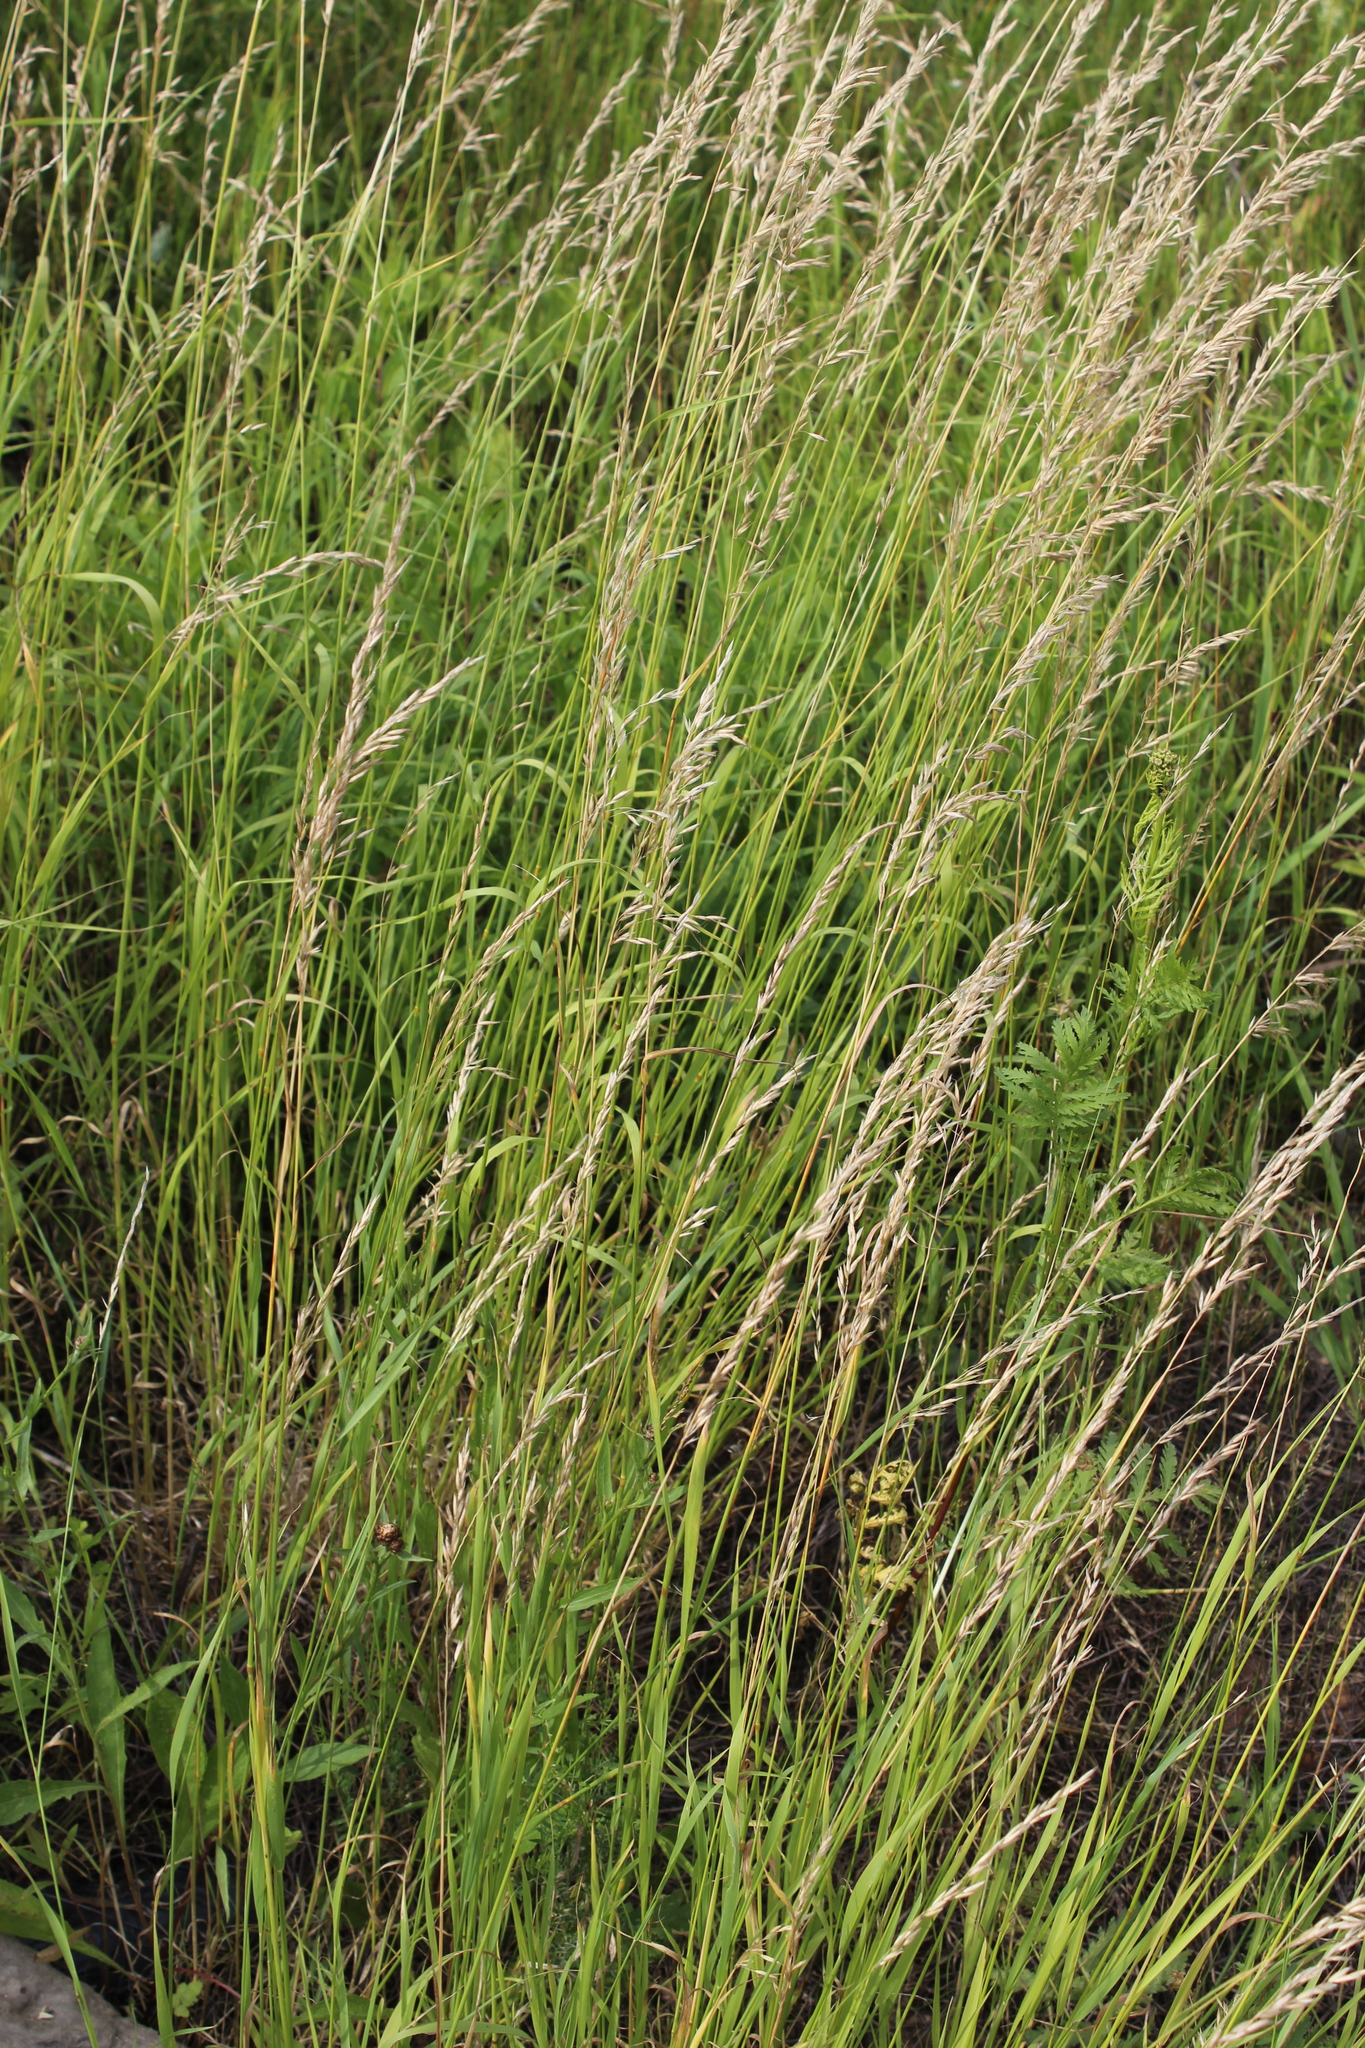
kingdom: Plantae
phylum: Tracheophyta
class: Liliopsida
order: Poales
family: Poaceae
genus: Arrhenatherum
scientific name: Arrhenatherum elatius
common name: Tall oatgrass
